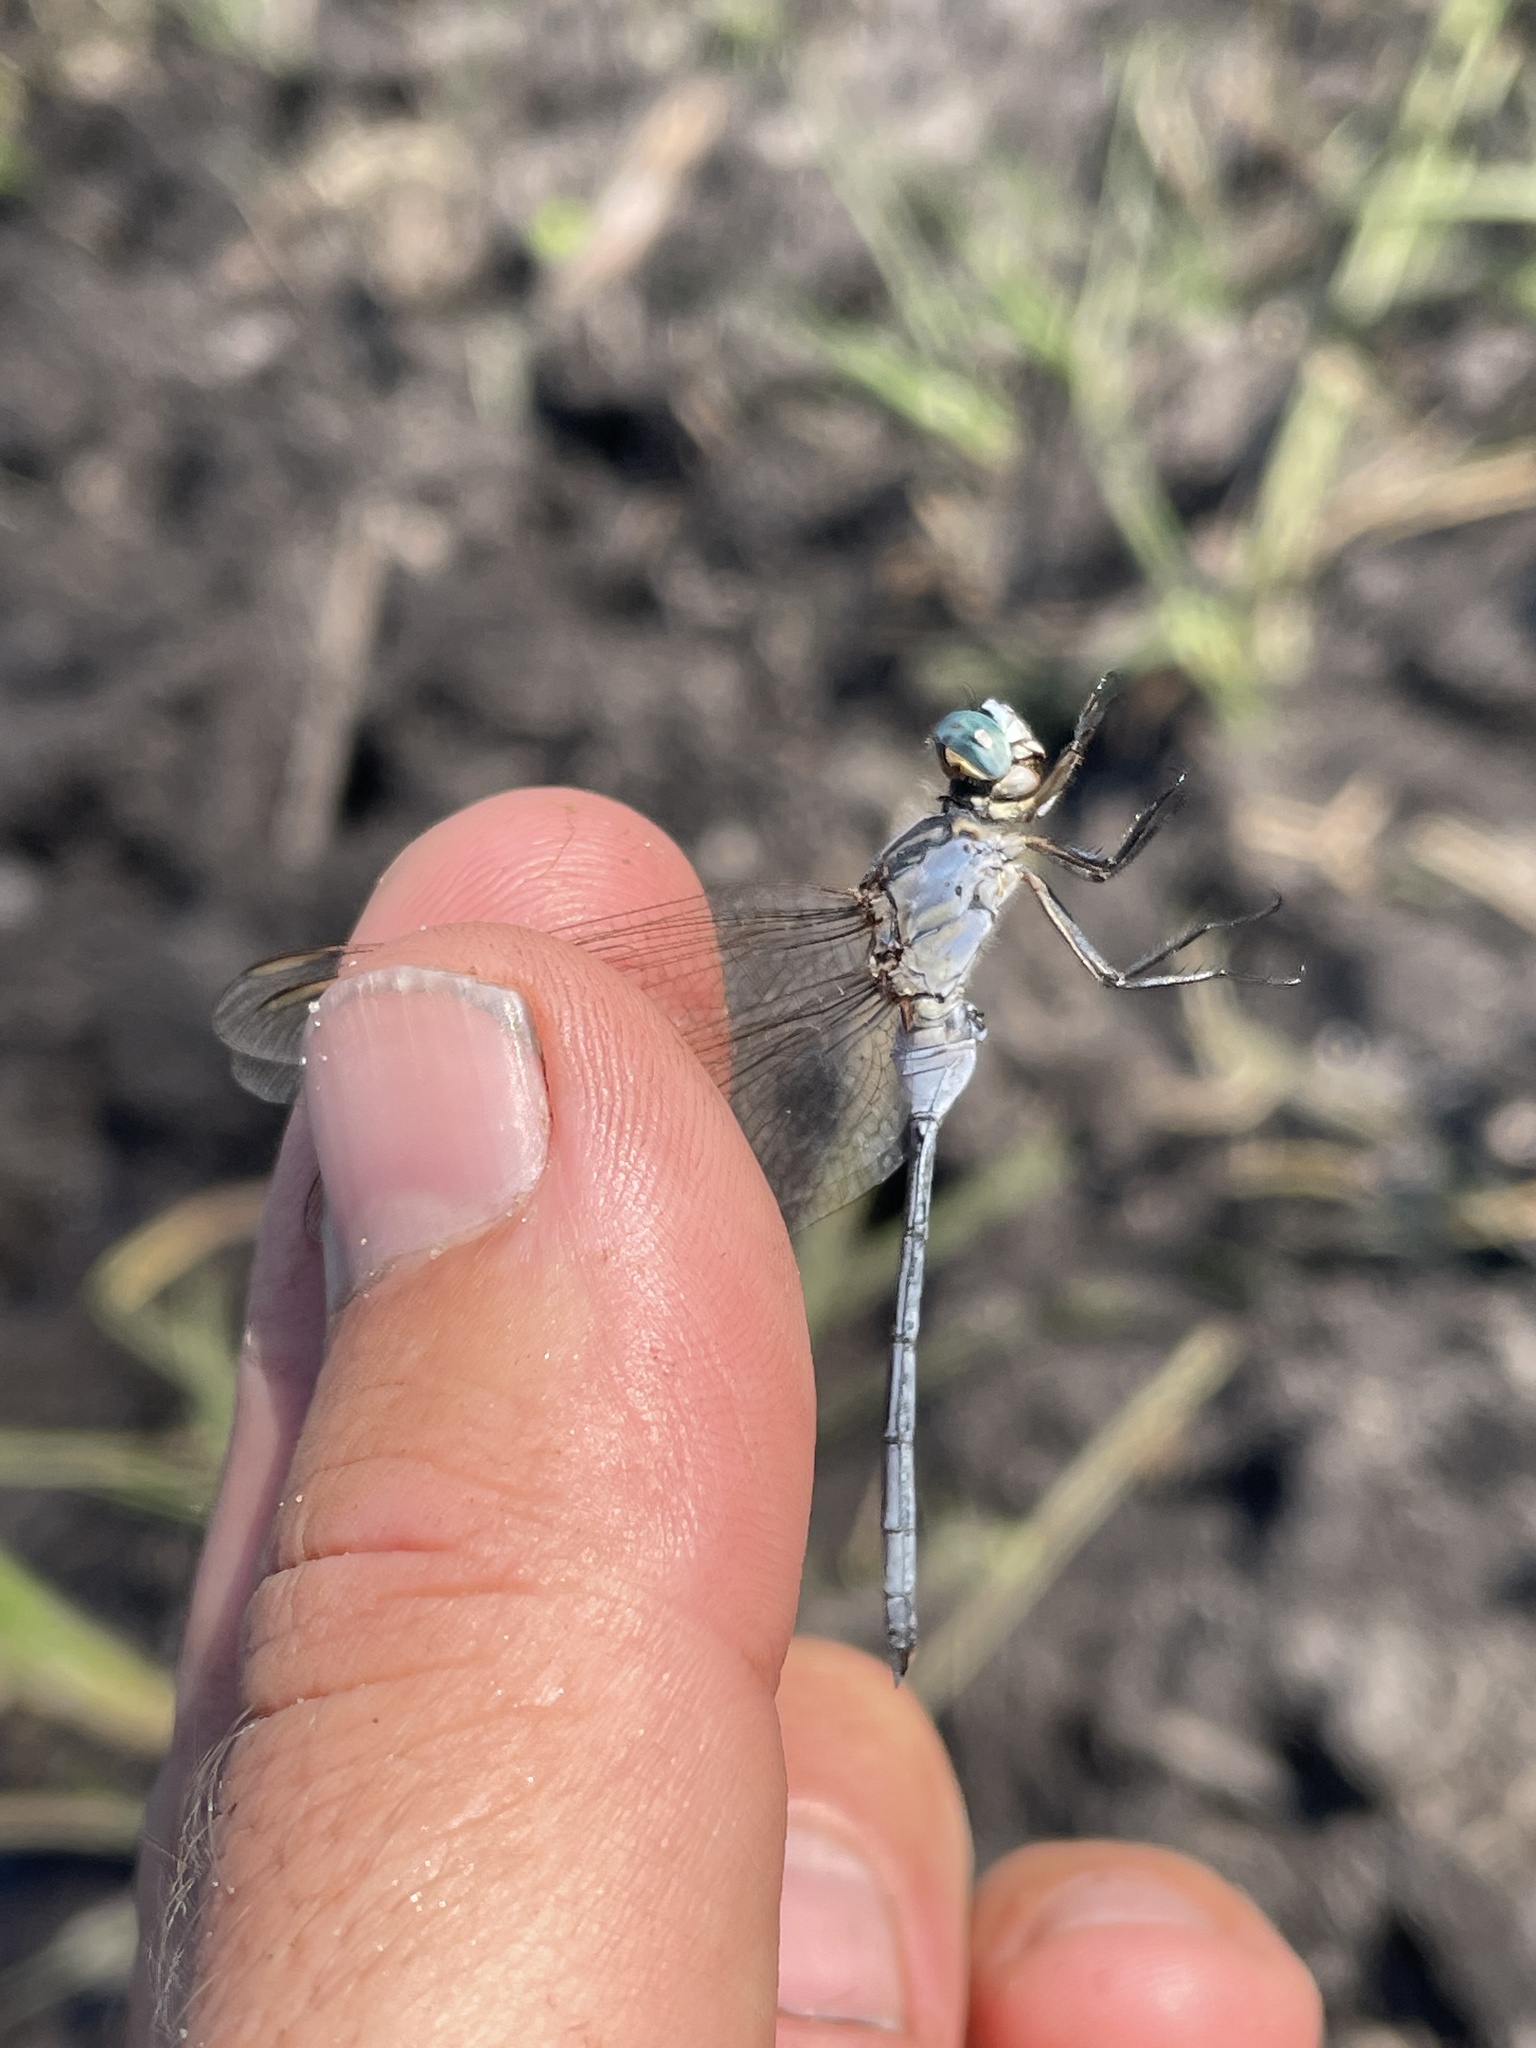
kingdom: Animalia
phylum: Arthropoda
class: Insecta
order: Odonata
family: Libellulidae
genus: Orthetrum
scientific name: Orthetrum icteromelas
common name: Spectacled skimmer
